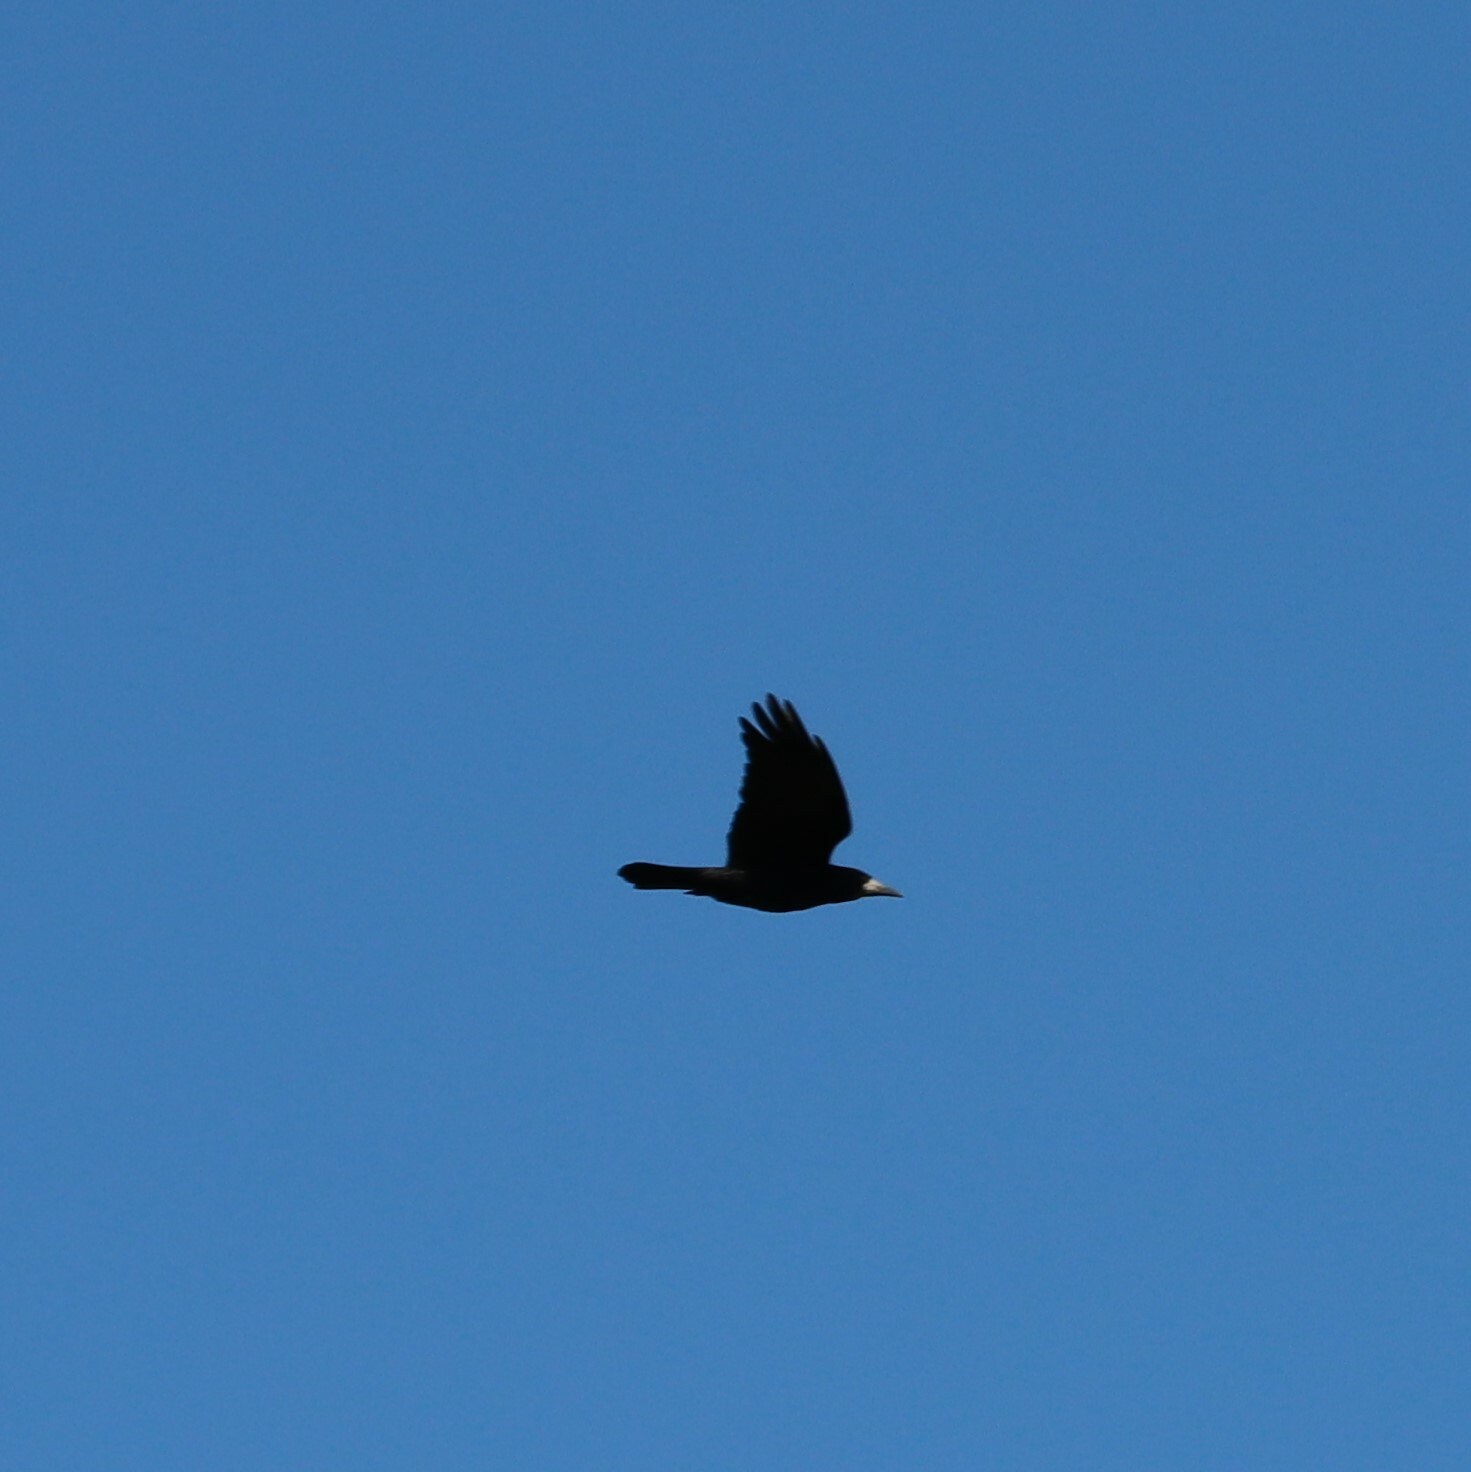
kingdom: Animalia
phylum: Chordata
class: Aves
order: Passeriformes
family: Corvidae
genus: Corvus
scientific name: Corvus frugilegus
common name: Rook
